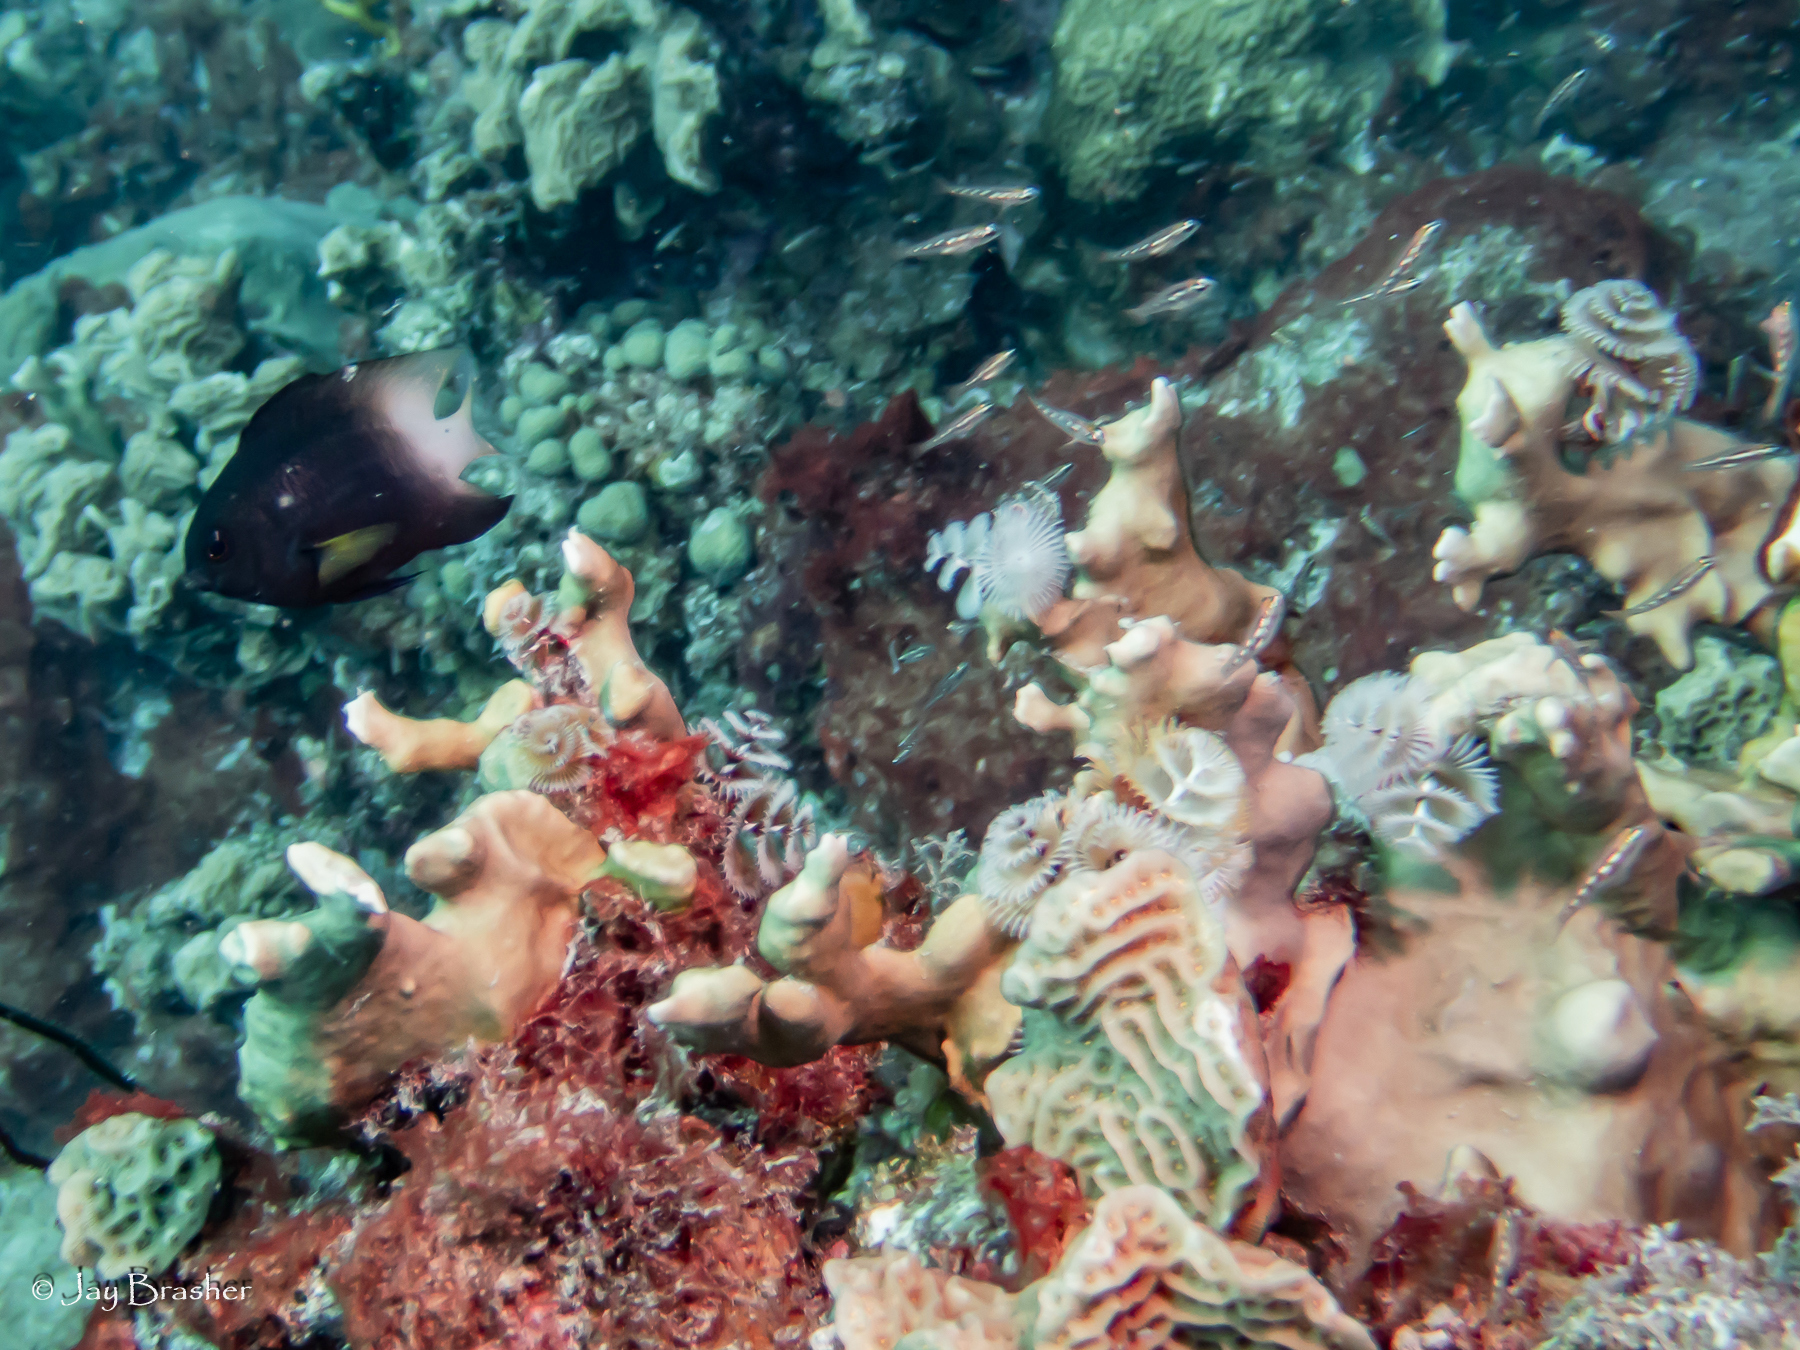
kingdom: Animalia
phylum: Chordata
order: Perciformes
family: Pomacentridae
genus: Stegastes
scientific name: Stegastes partitus
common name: Bicolor damselfish
